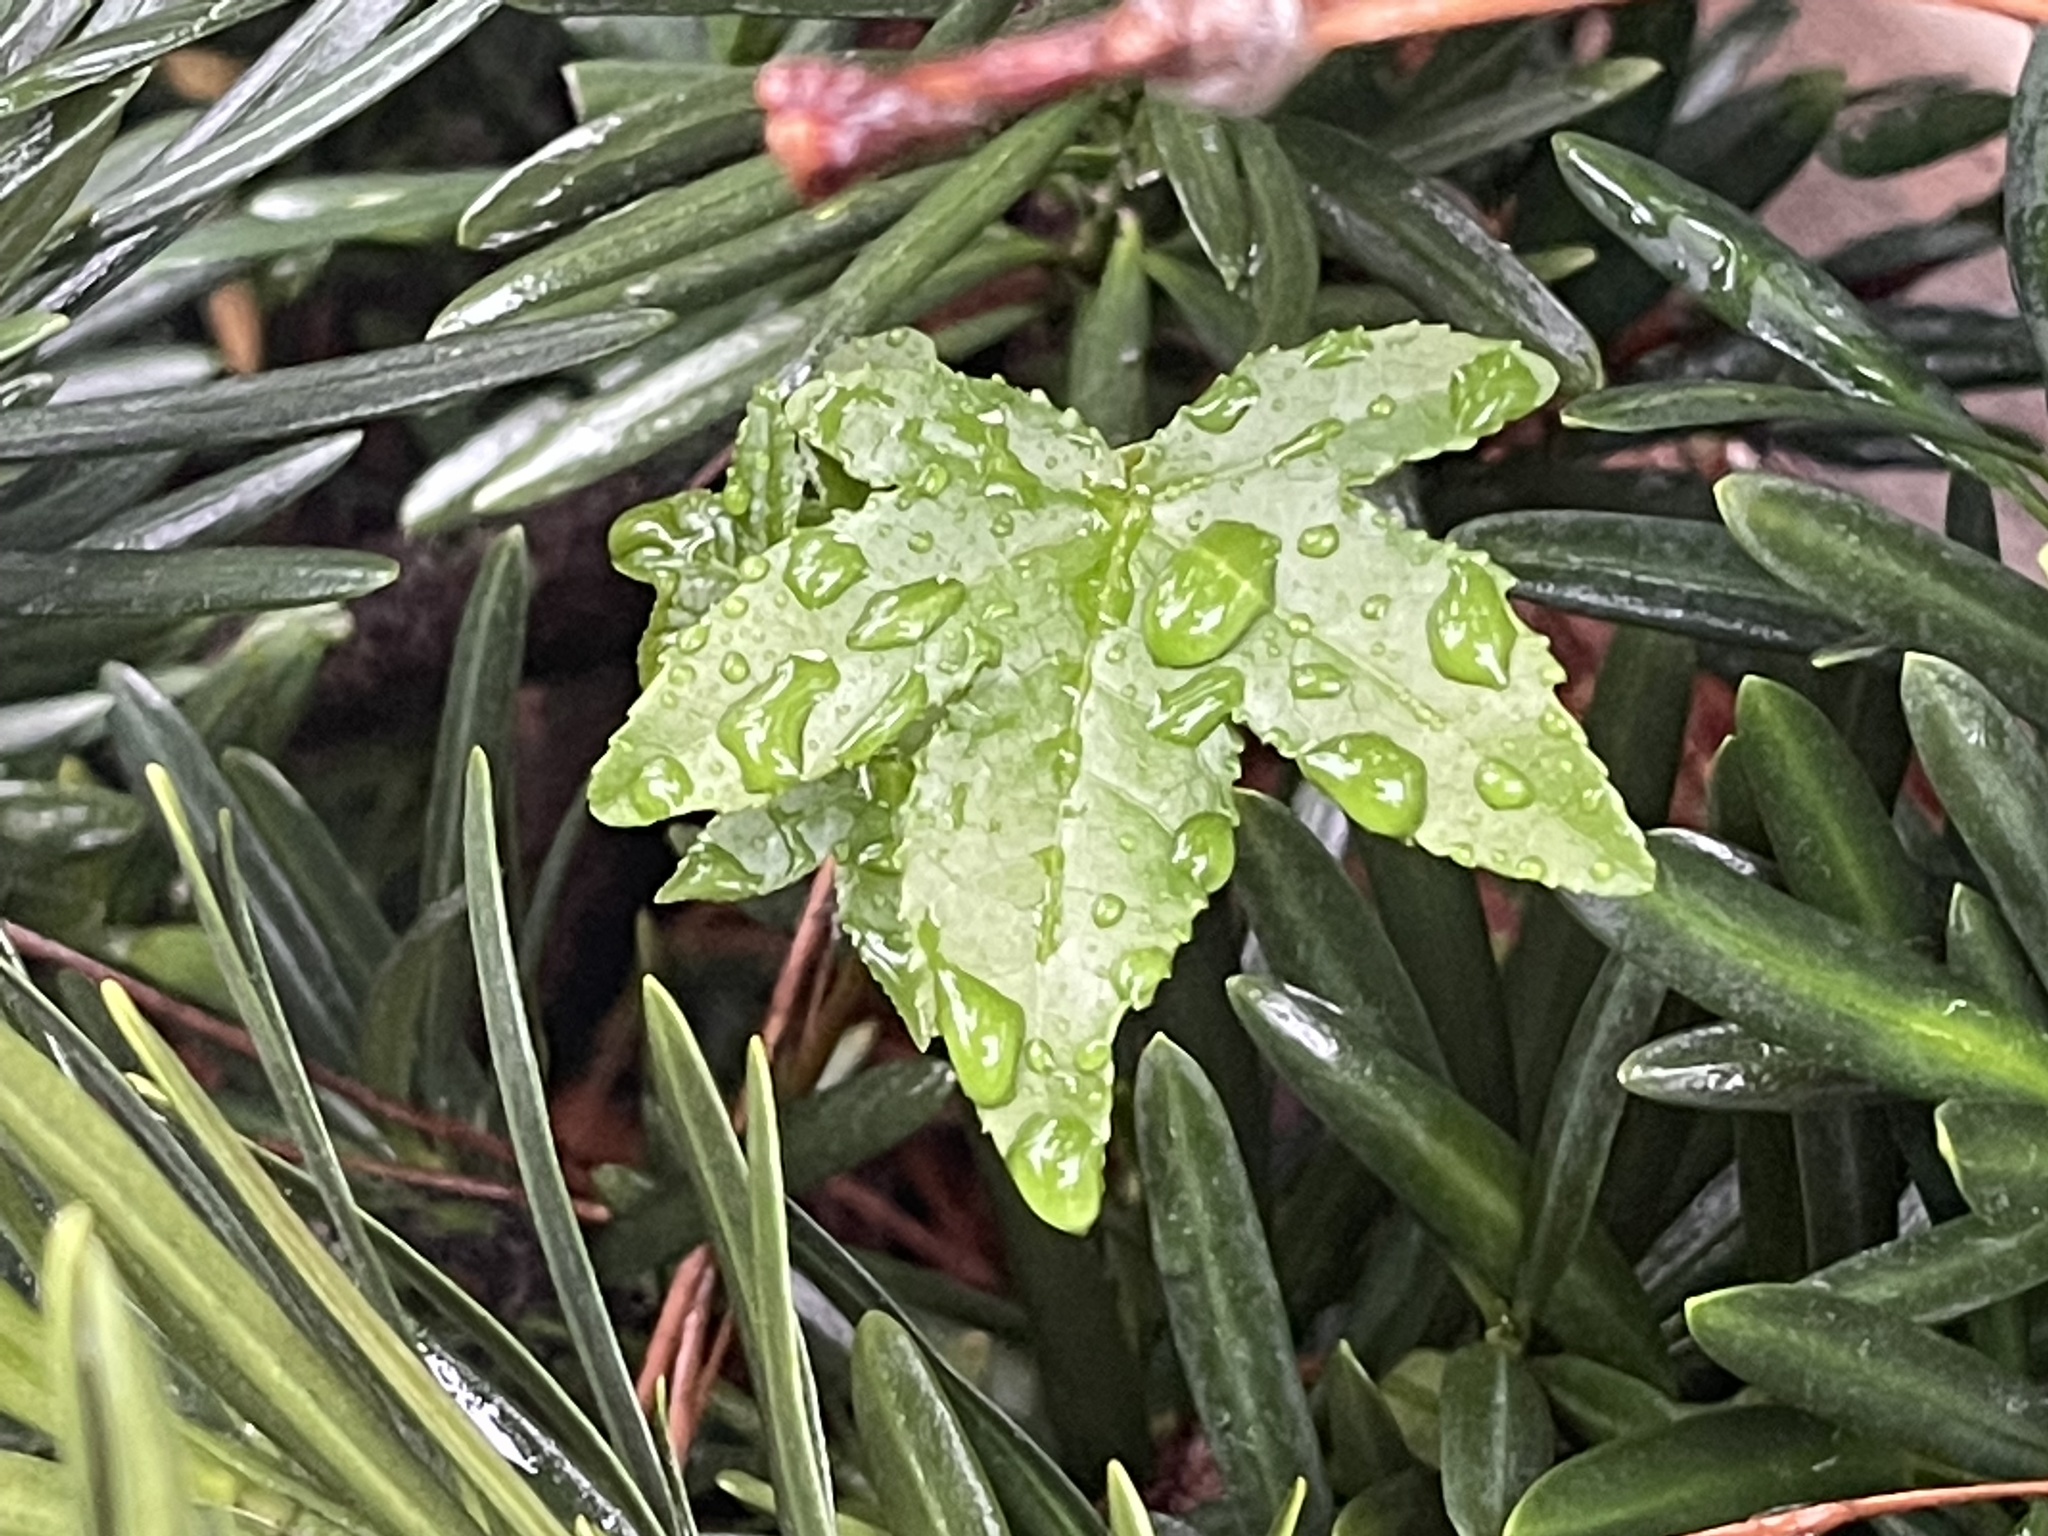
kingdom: Plantae
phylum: Tracheophyta
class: Magnoliopsida
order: Saxifragales
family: Altingiaceae
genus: Liquidambar
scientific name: Liquidambar styraciflua
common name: Sweet gum
